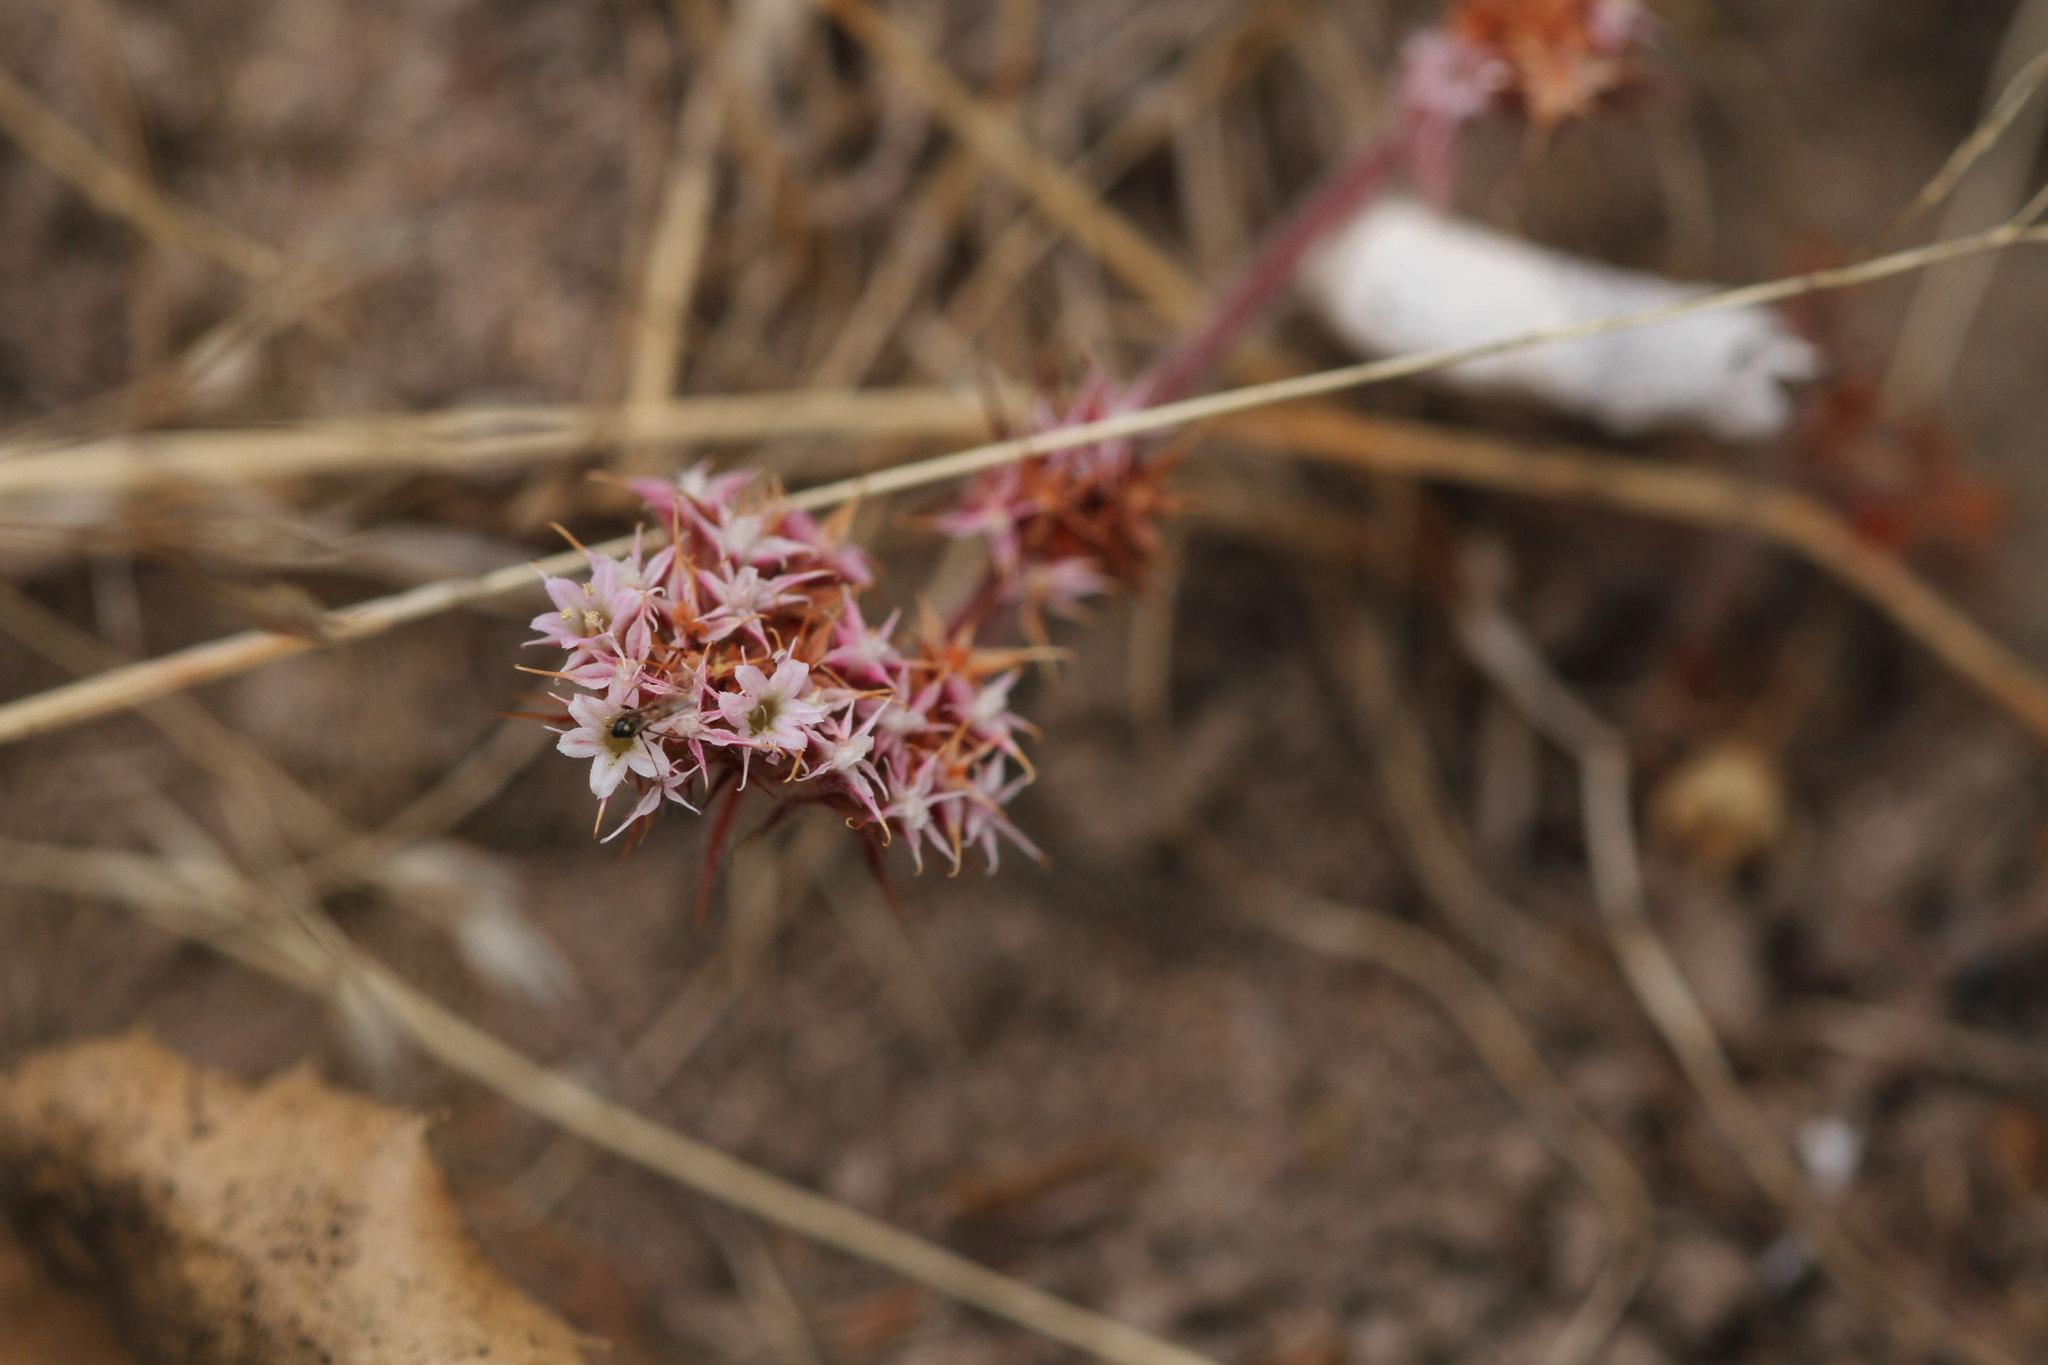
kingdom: Plantae
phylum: Tracheophyta
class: Magnoliopsida
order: Caryophyllales
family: Polygonaceae
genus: Chorizanthe
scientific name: Chorizanthe pungens
